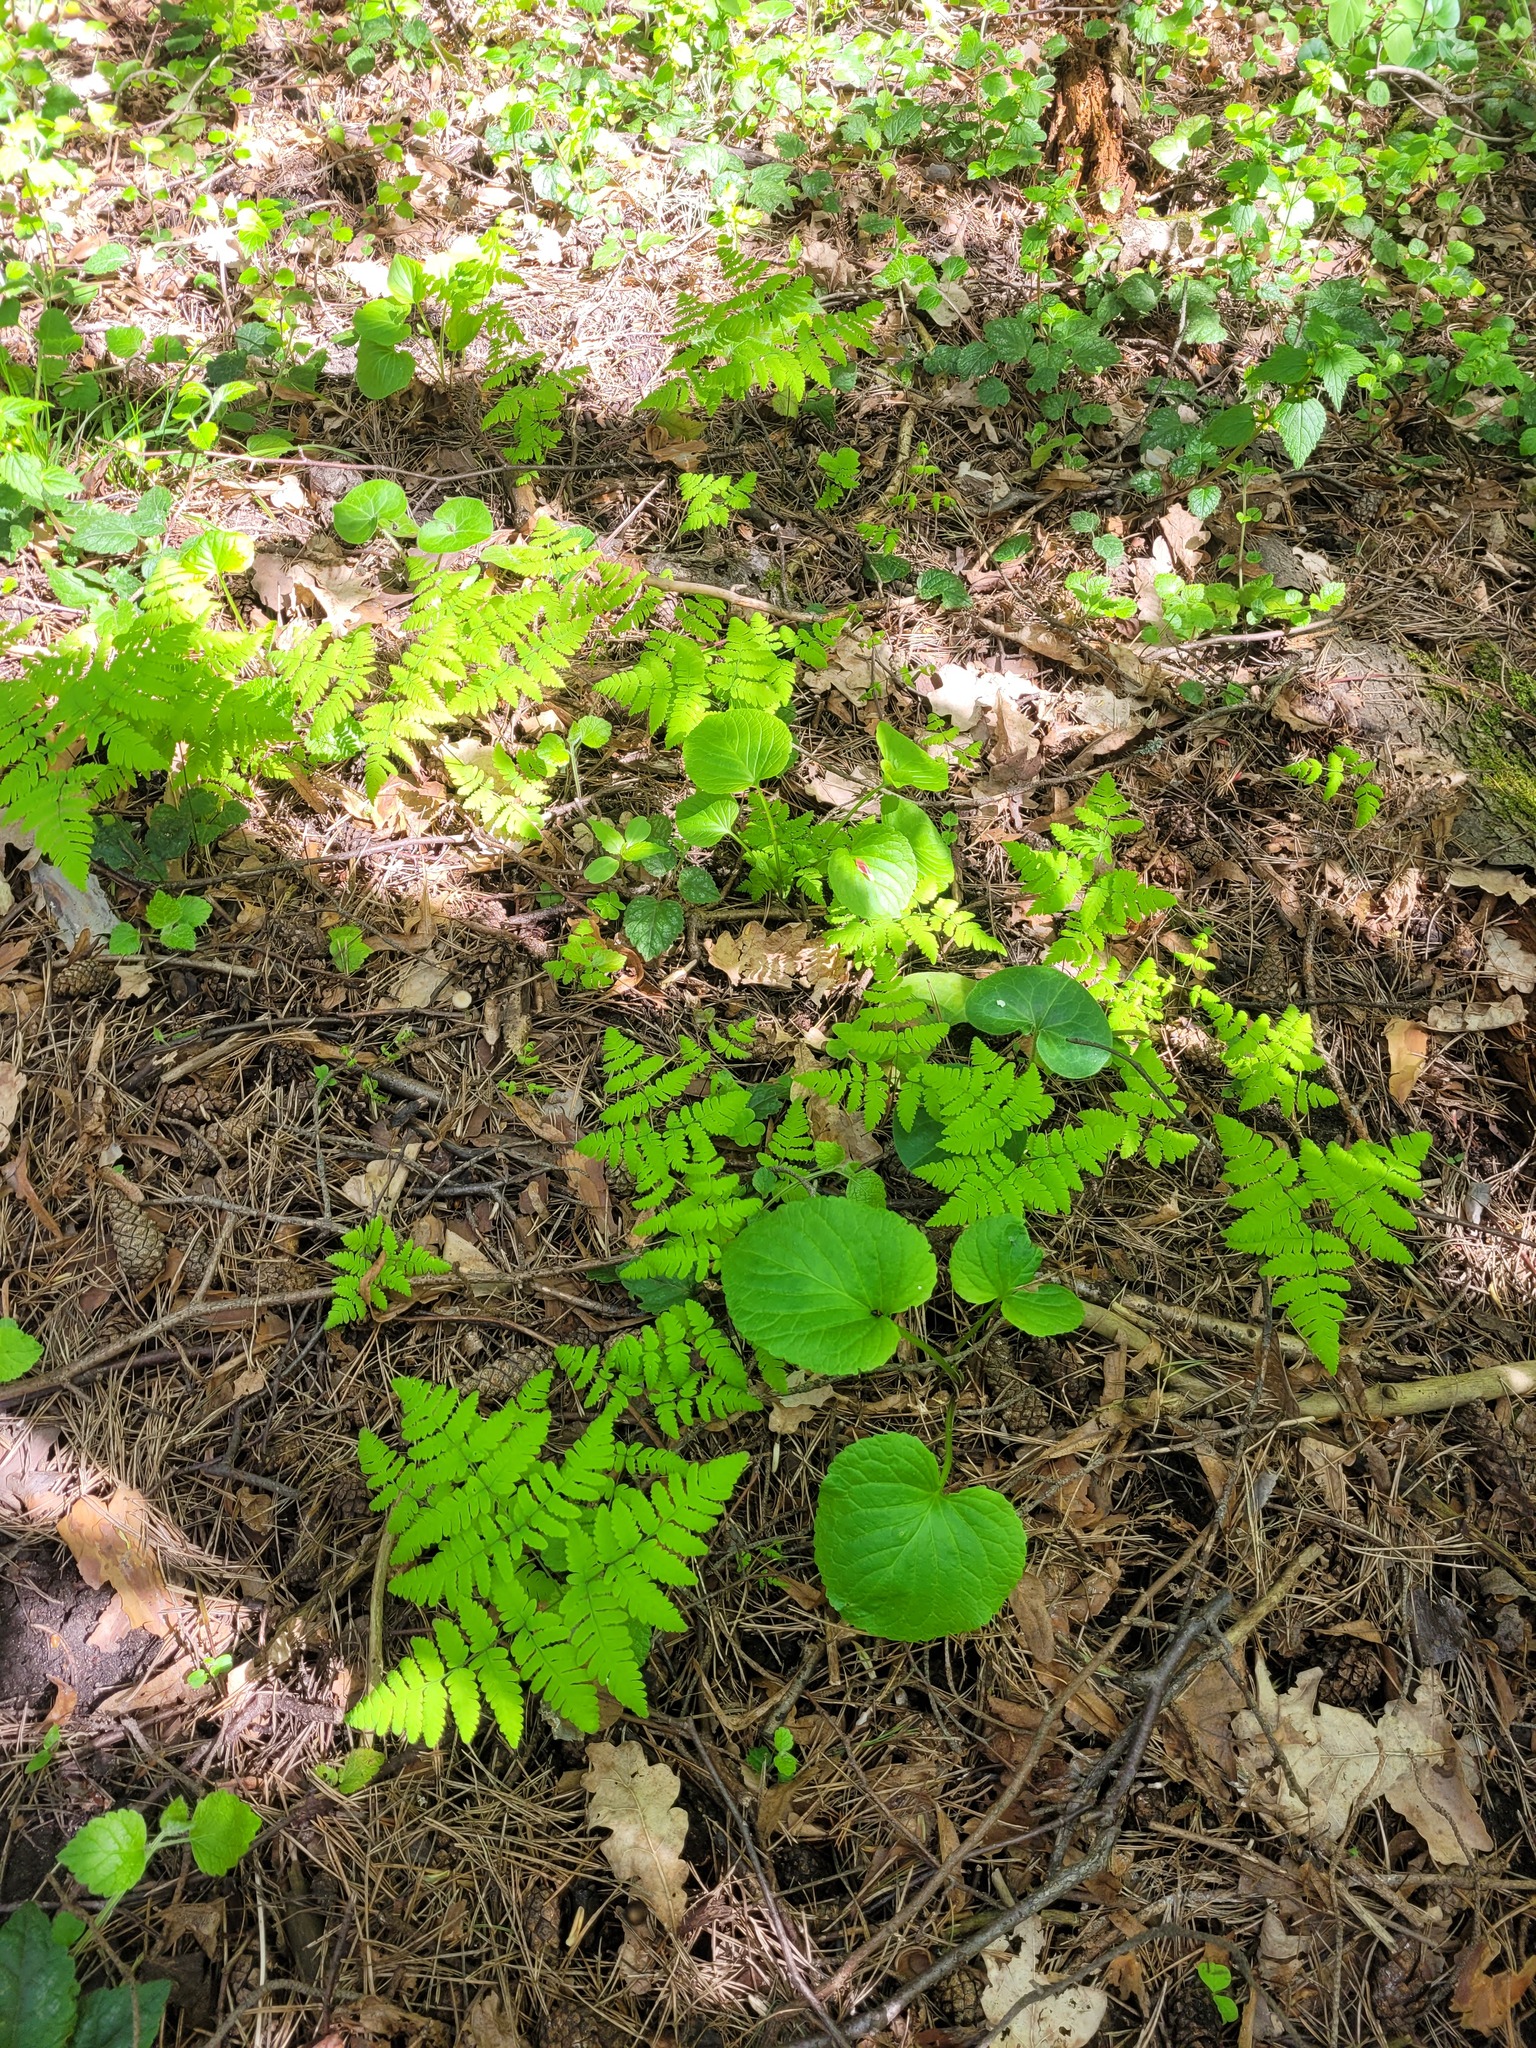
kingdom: Plantae
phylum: Tracheophyta
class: Polypodiopsida
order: Polypodiales
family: Cystopteridaceae
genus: Gymnocarpium
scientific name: Gymnocarpium dryopteris
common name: Oak fern
